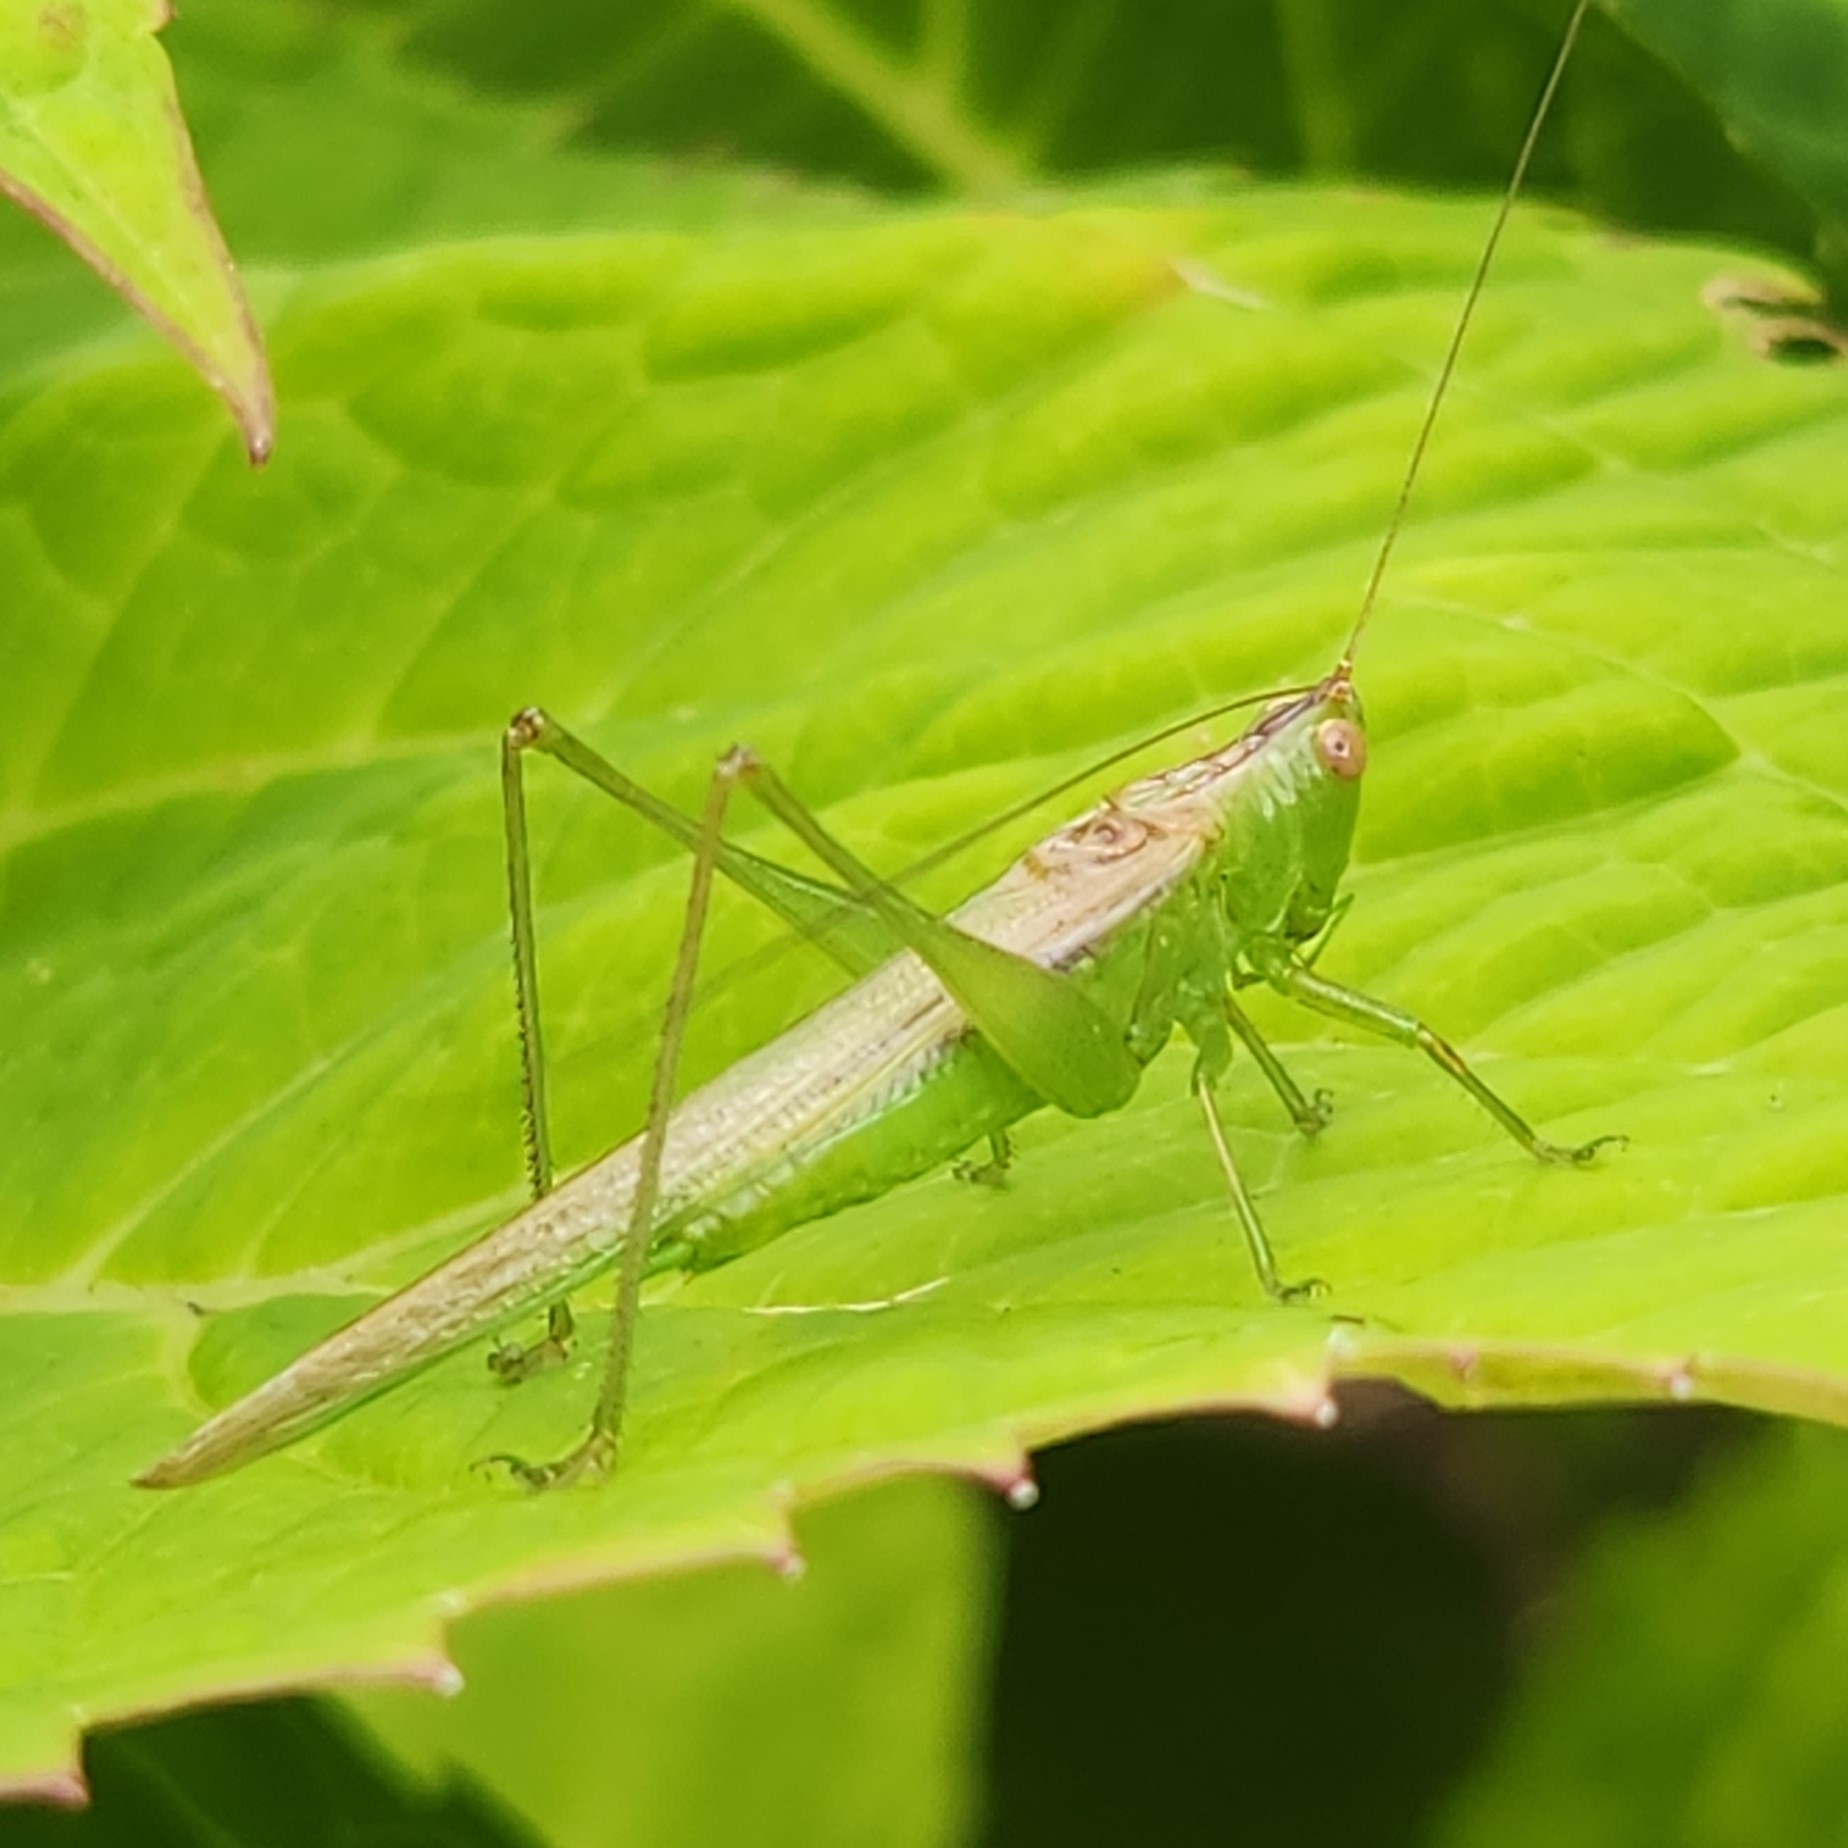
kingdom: Animalia
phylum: Arthropoda
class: Insecta
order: Orthoptera
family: Tettigoniidae
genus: Conocephalus
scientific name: Conocephalus fasciatus
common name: Slender meadow katydid
